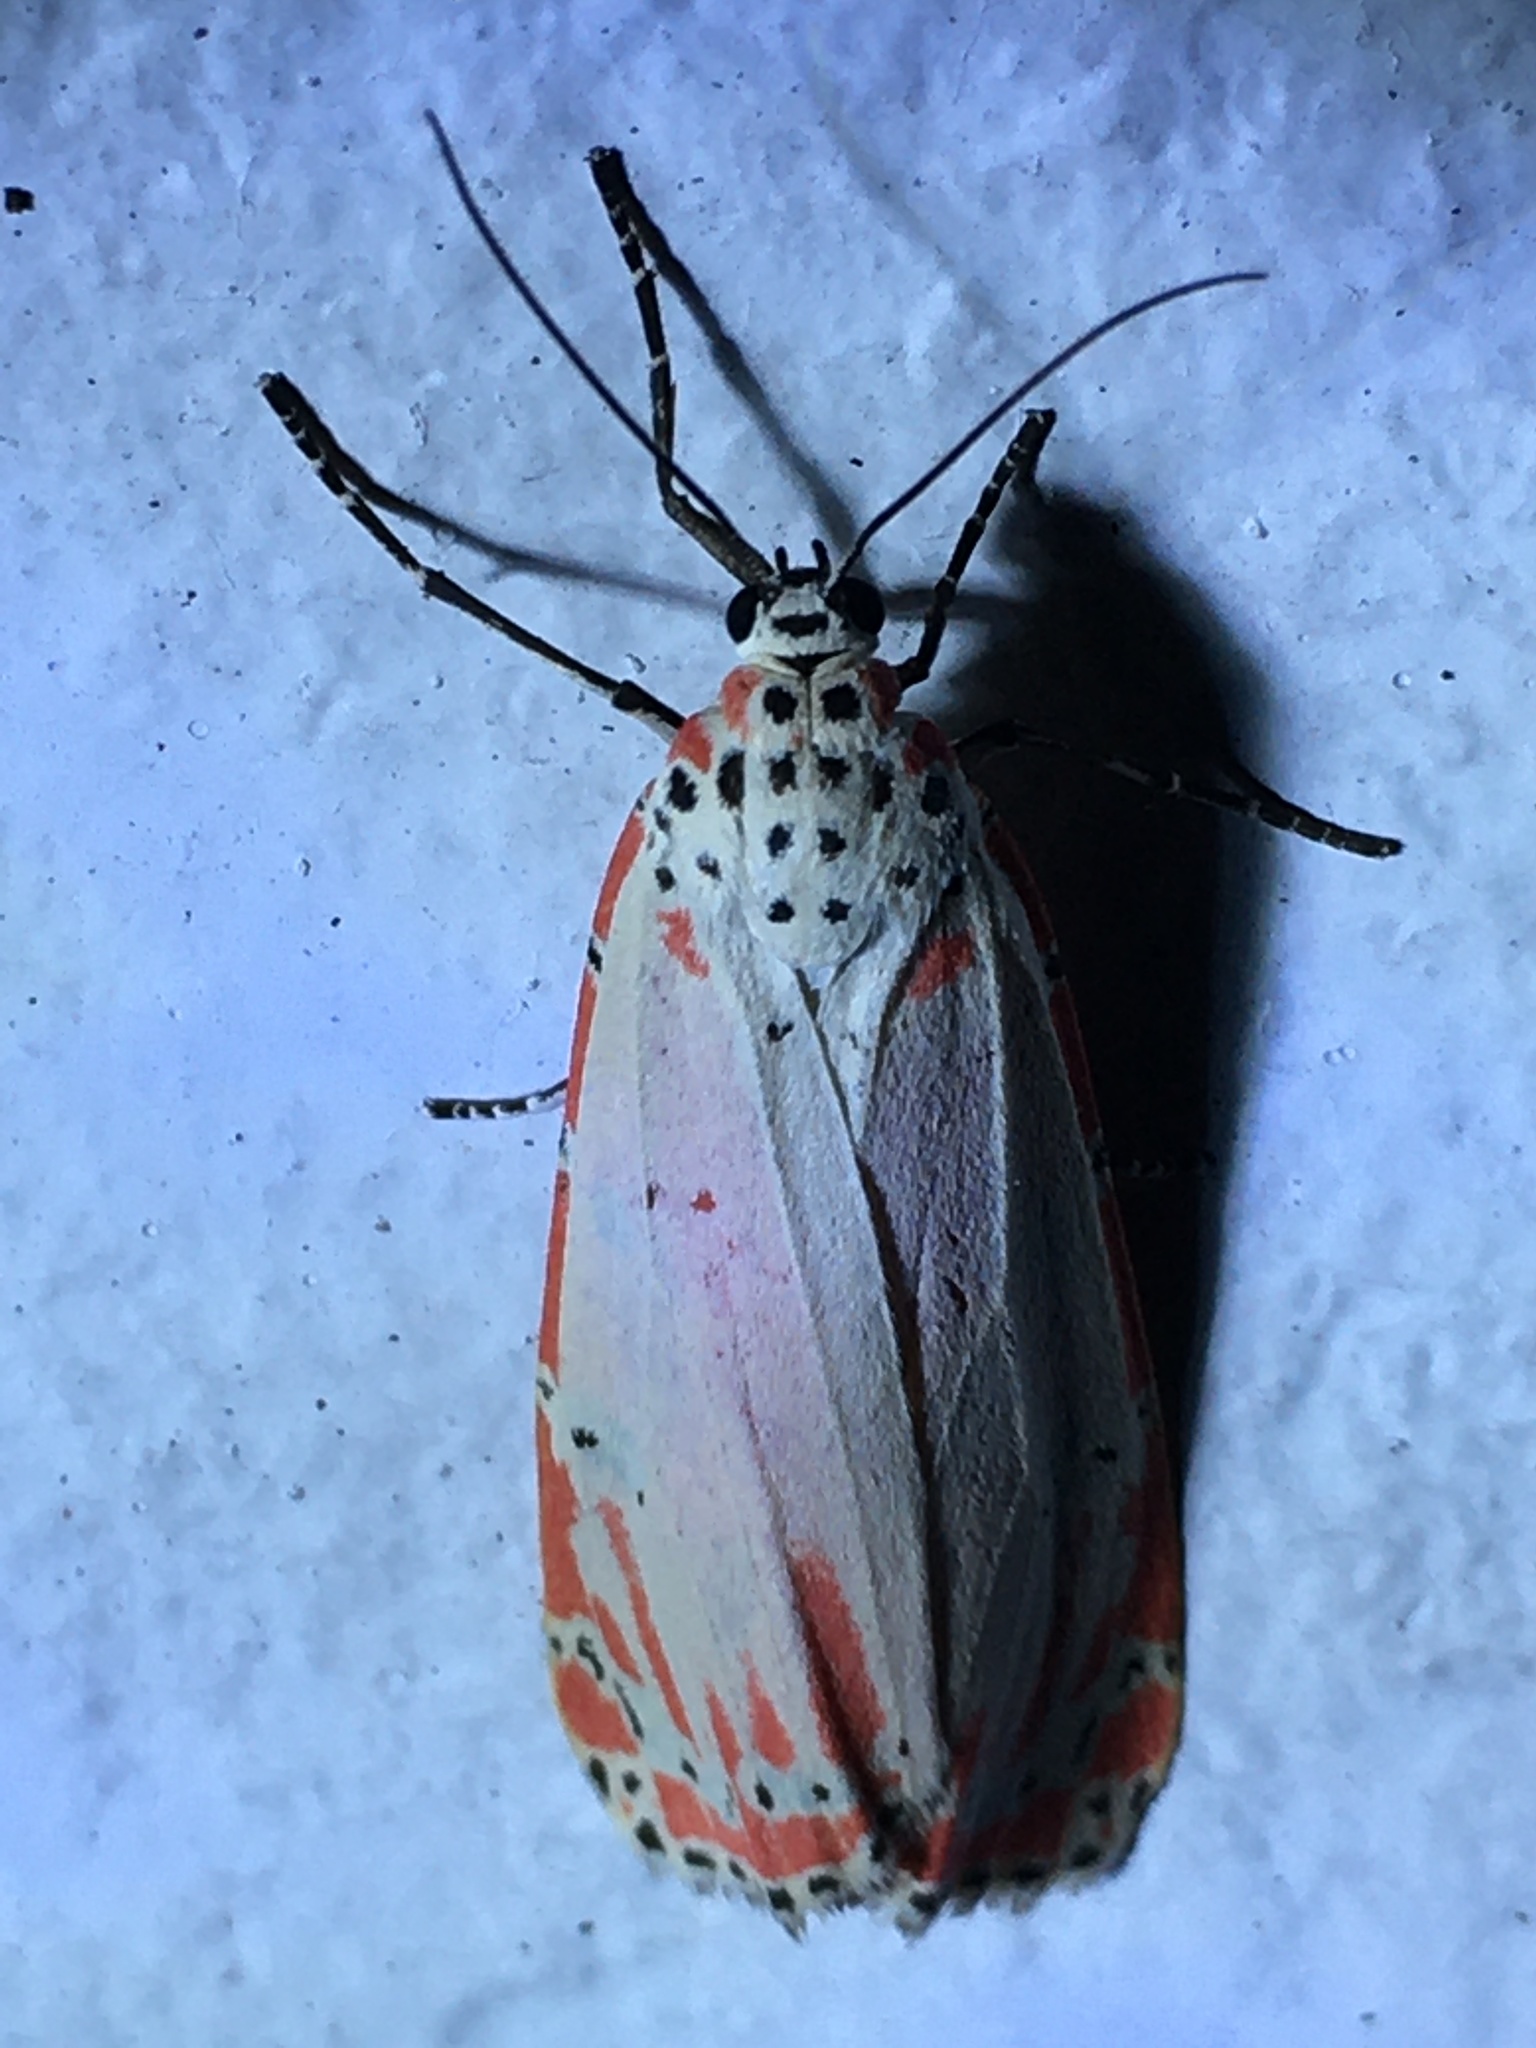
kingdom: Animalia
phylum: Arthropoda
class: Insecta
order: Lepidoptera
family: Erebidae
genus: Utetheisa
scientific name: Utetheisa ornatrix
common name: Beautiful utetheisa
